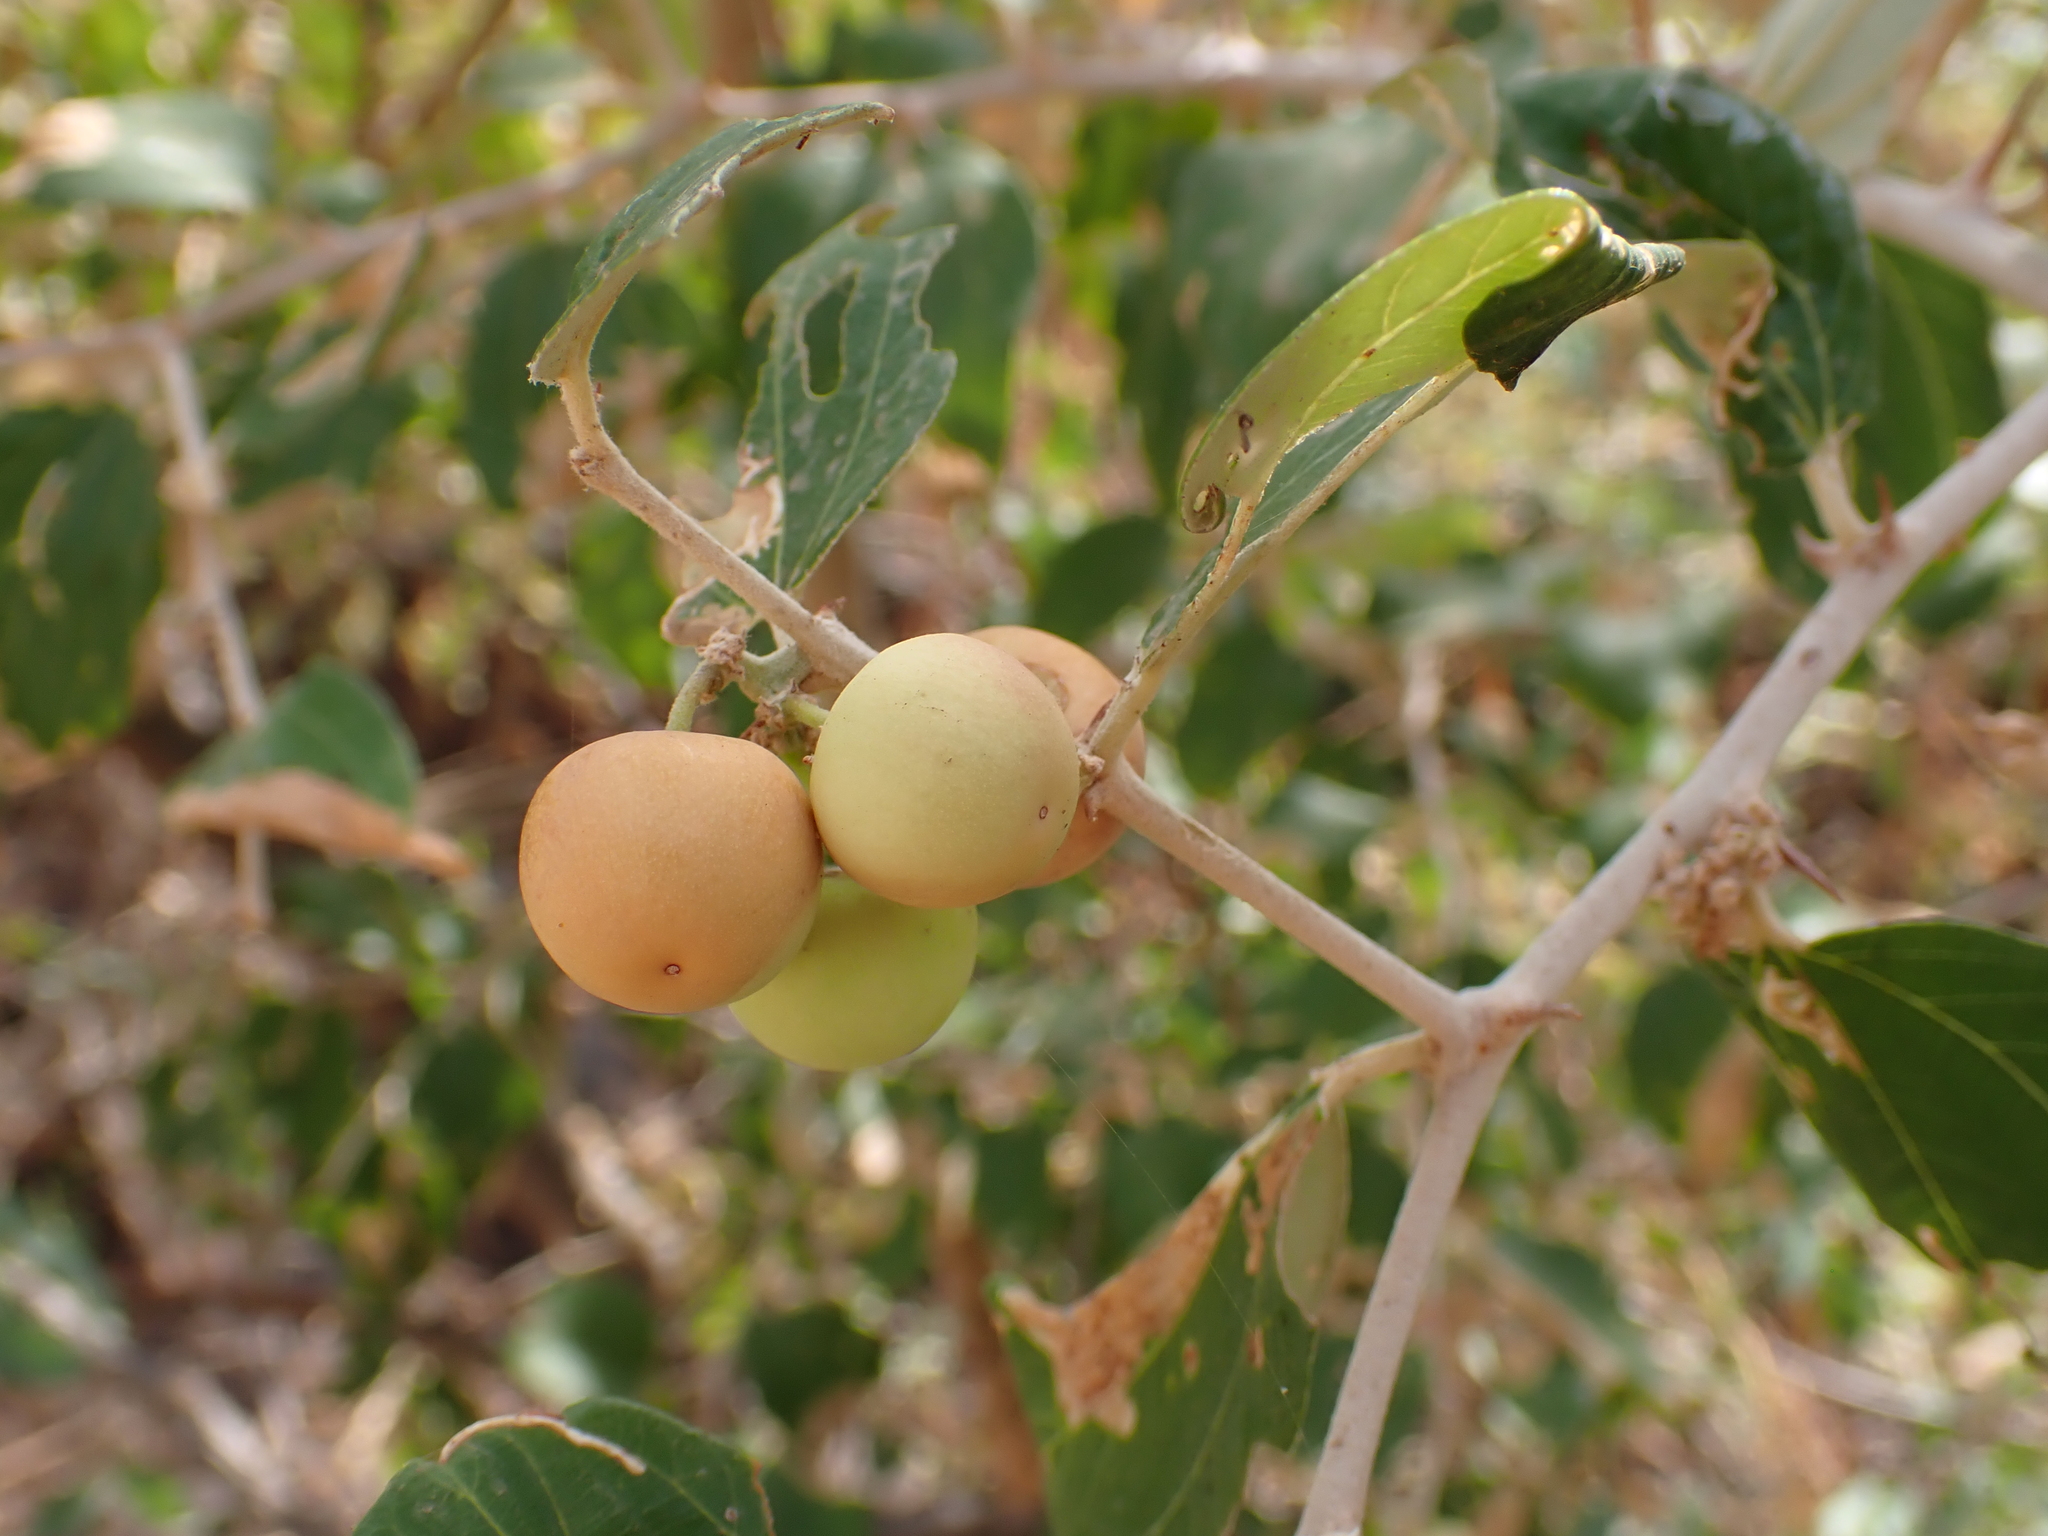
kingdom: Plantae
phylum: Tracheophyta
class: Magnoliopsida
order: Rosales
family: Rhamnaceae
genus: Ziziphus
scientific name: Ziziphus mauritiana
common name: Indian jujube
